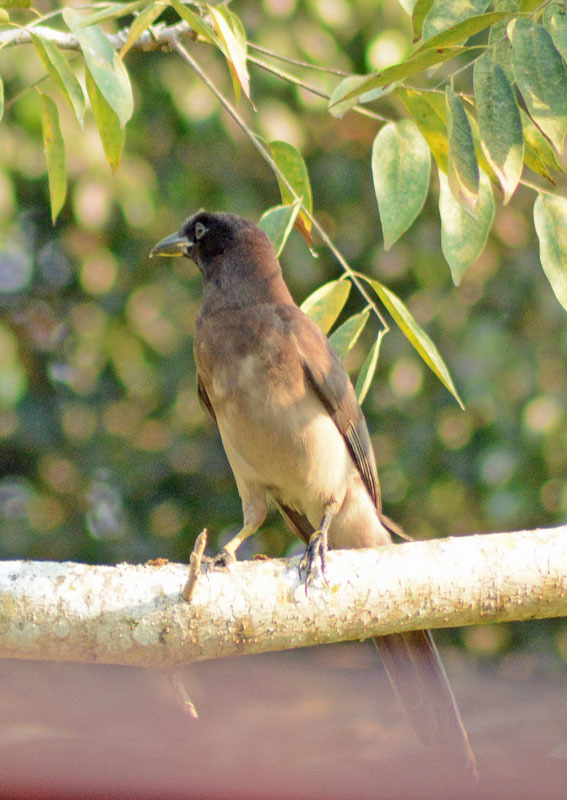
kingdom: Animalia
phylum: Chordata
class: Aves
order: Passeriformes
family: Corvidae
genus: Psilorhinus
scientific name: Psilorhinus morio
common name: Brown jay
